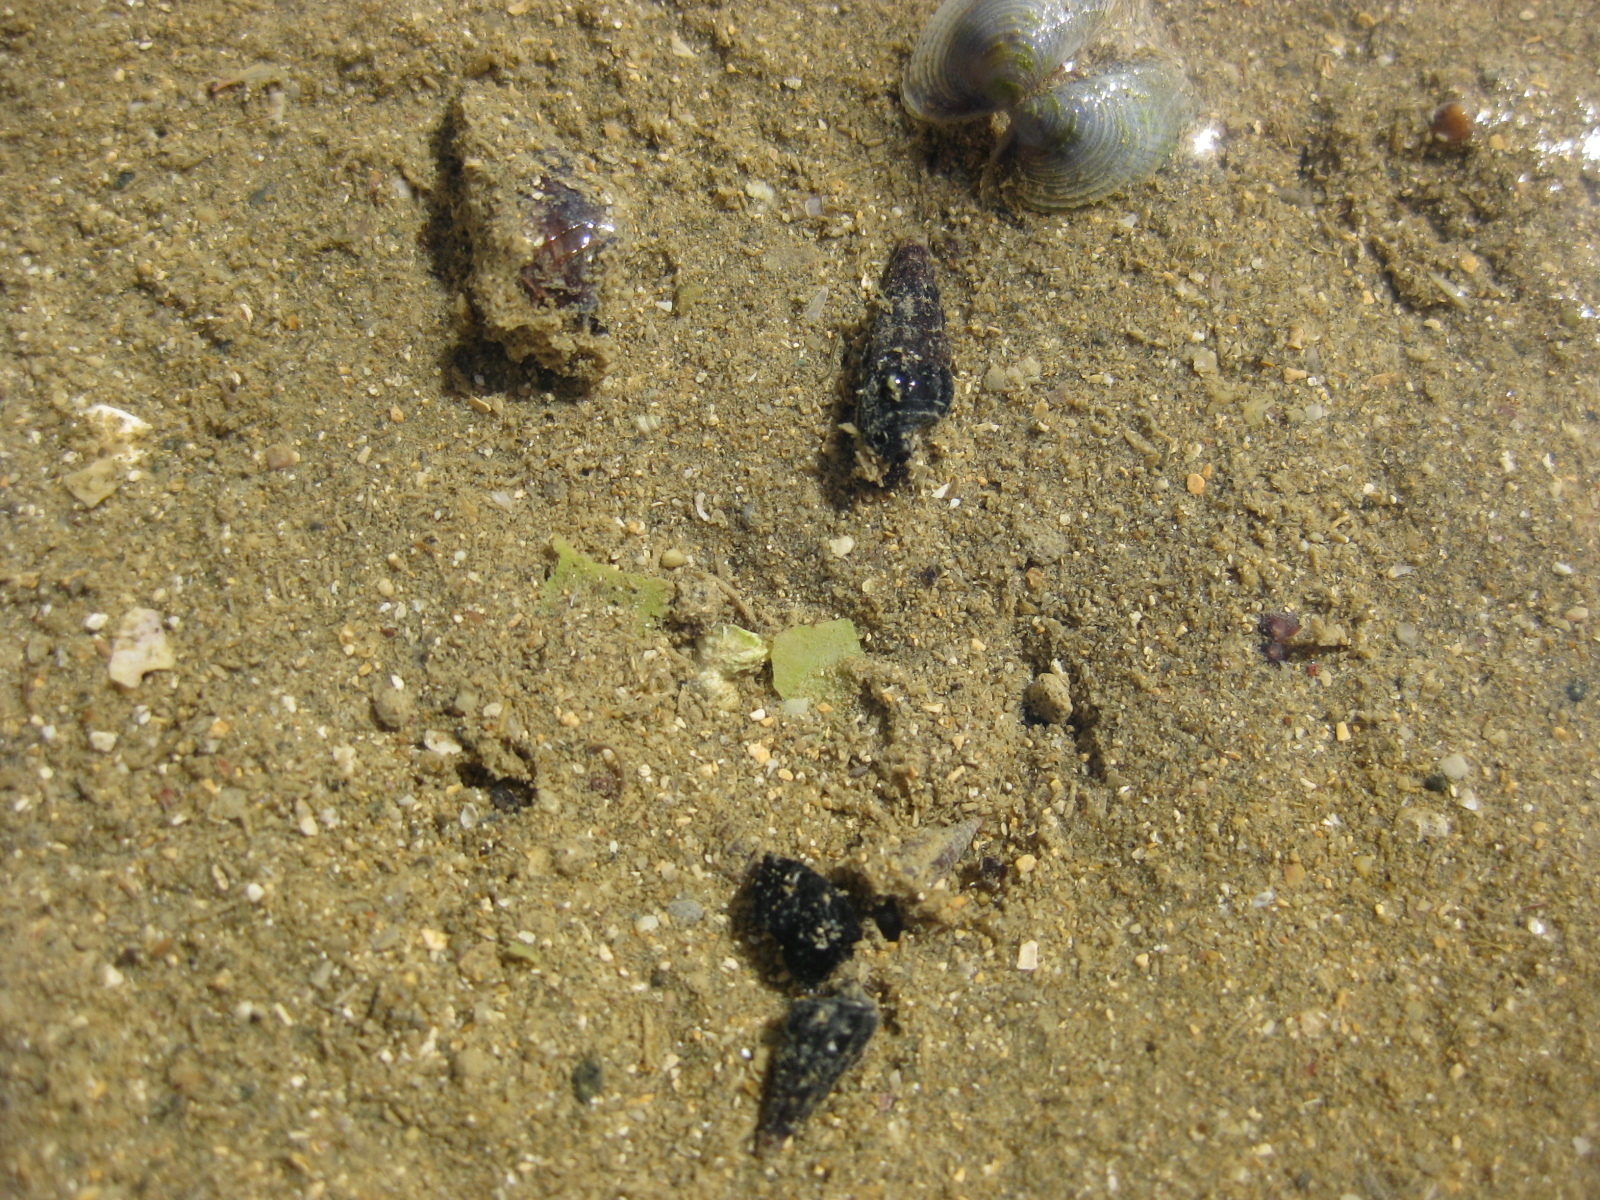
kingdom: Animalia
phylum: Mollusca
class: Gastropoda
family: Batillariidae
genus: Zeacumantus
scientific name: Zeacumantus subcarinatus
